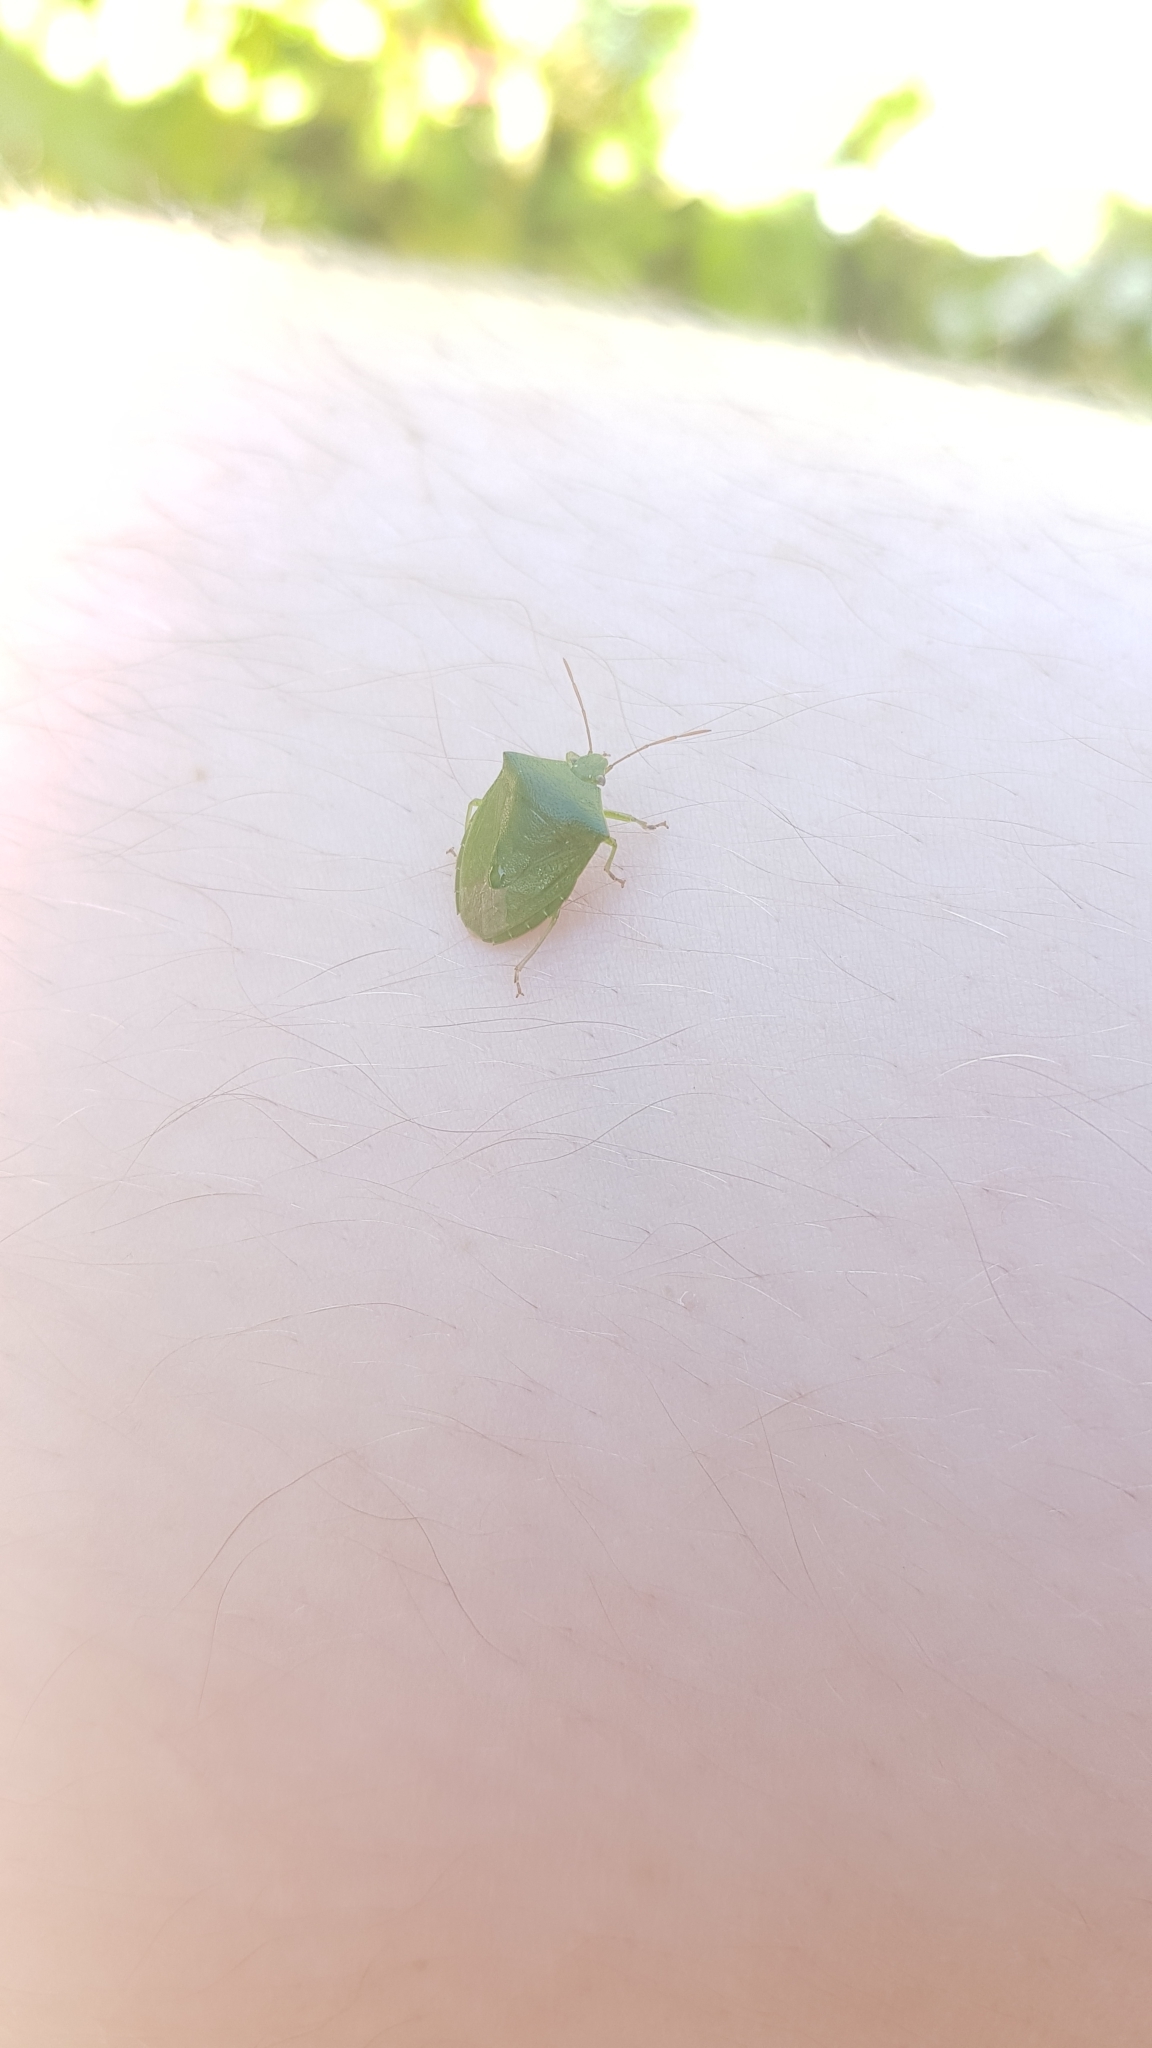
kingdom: Animalia
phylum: Arthropoda
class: Insecta
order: Hemiptera
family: Pentatomidae
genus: Cuspicona
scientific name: Cuspicona simplex
